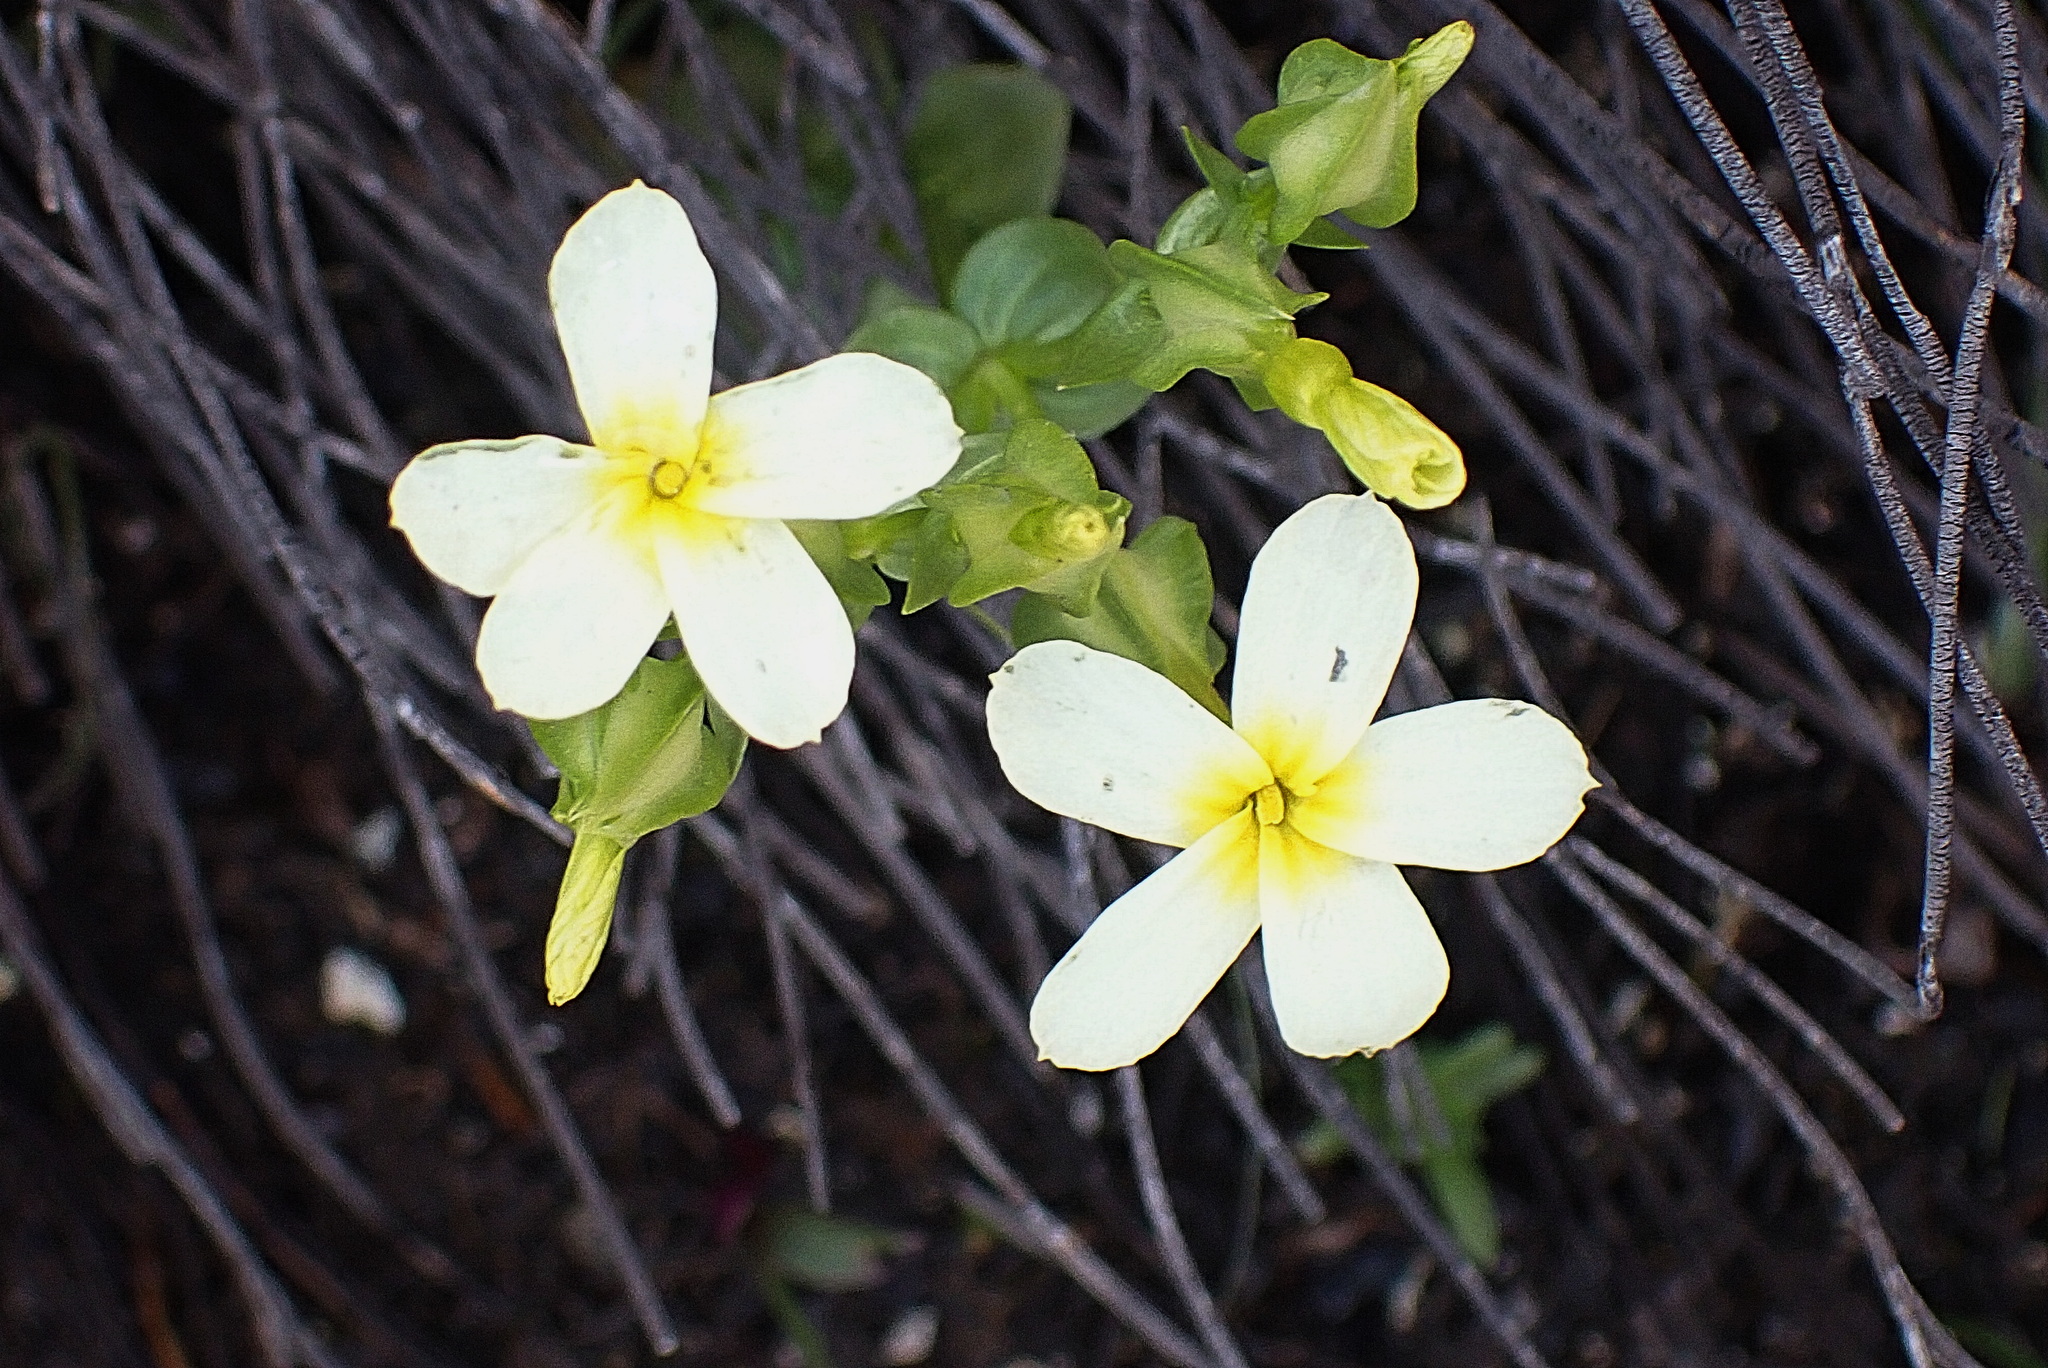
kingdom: Plantae
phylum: Tracheophyta
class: Magnoliopsida
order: Gentianales
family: Gentianaceae
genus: Sebaea
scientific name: Sebaea exacoides
